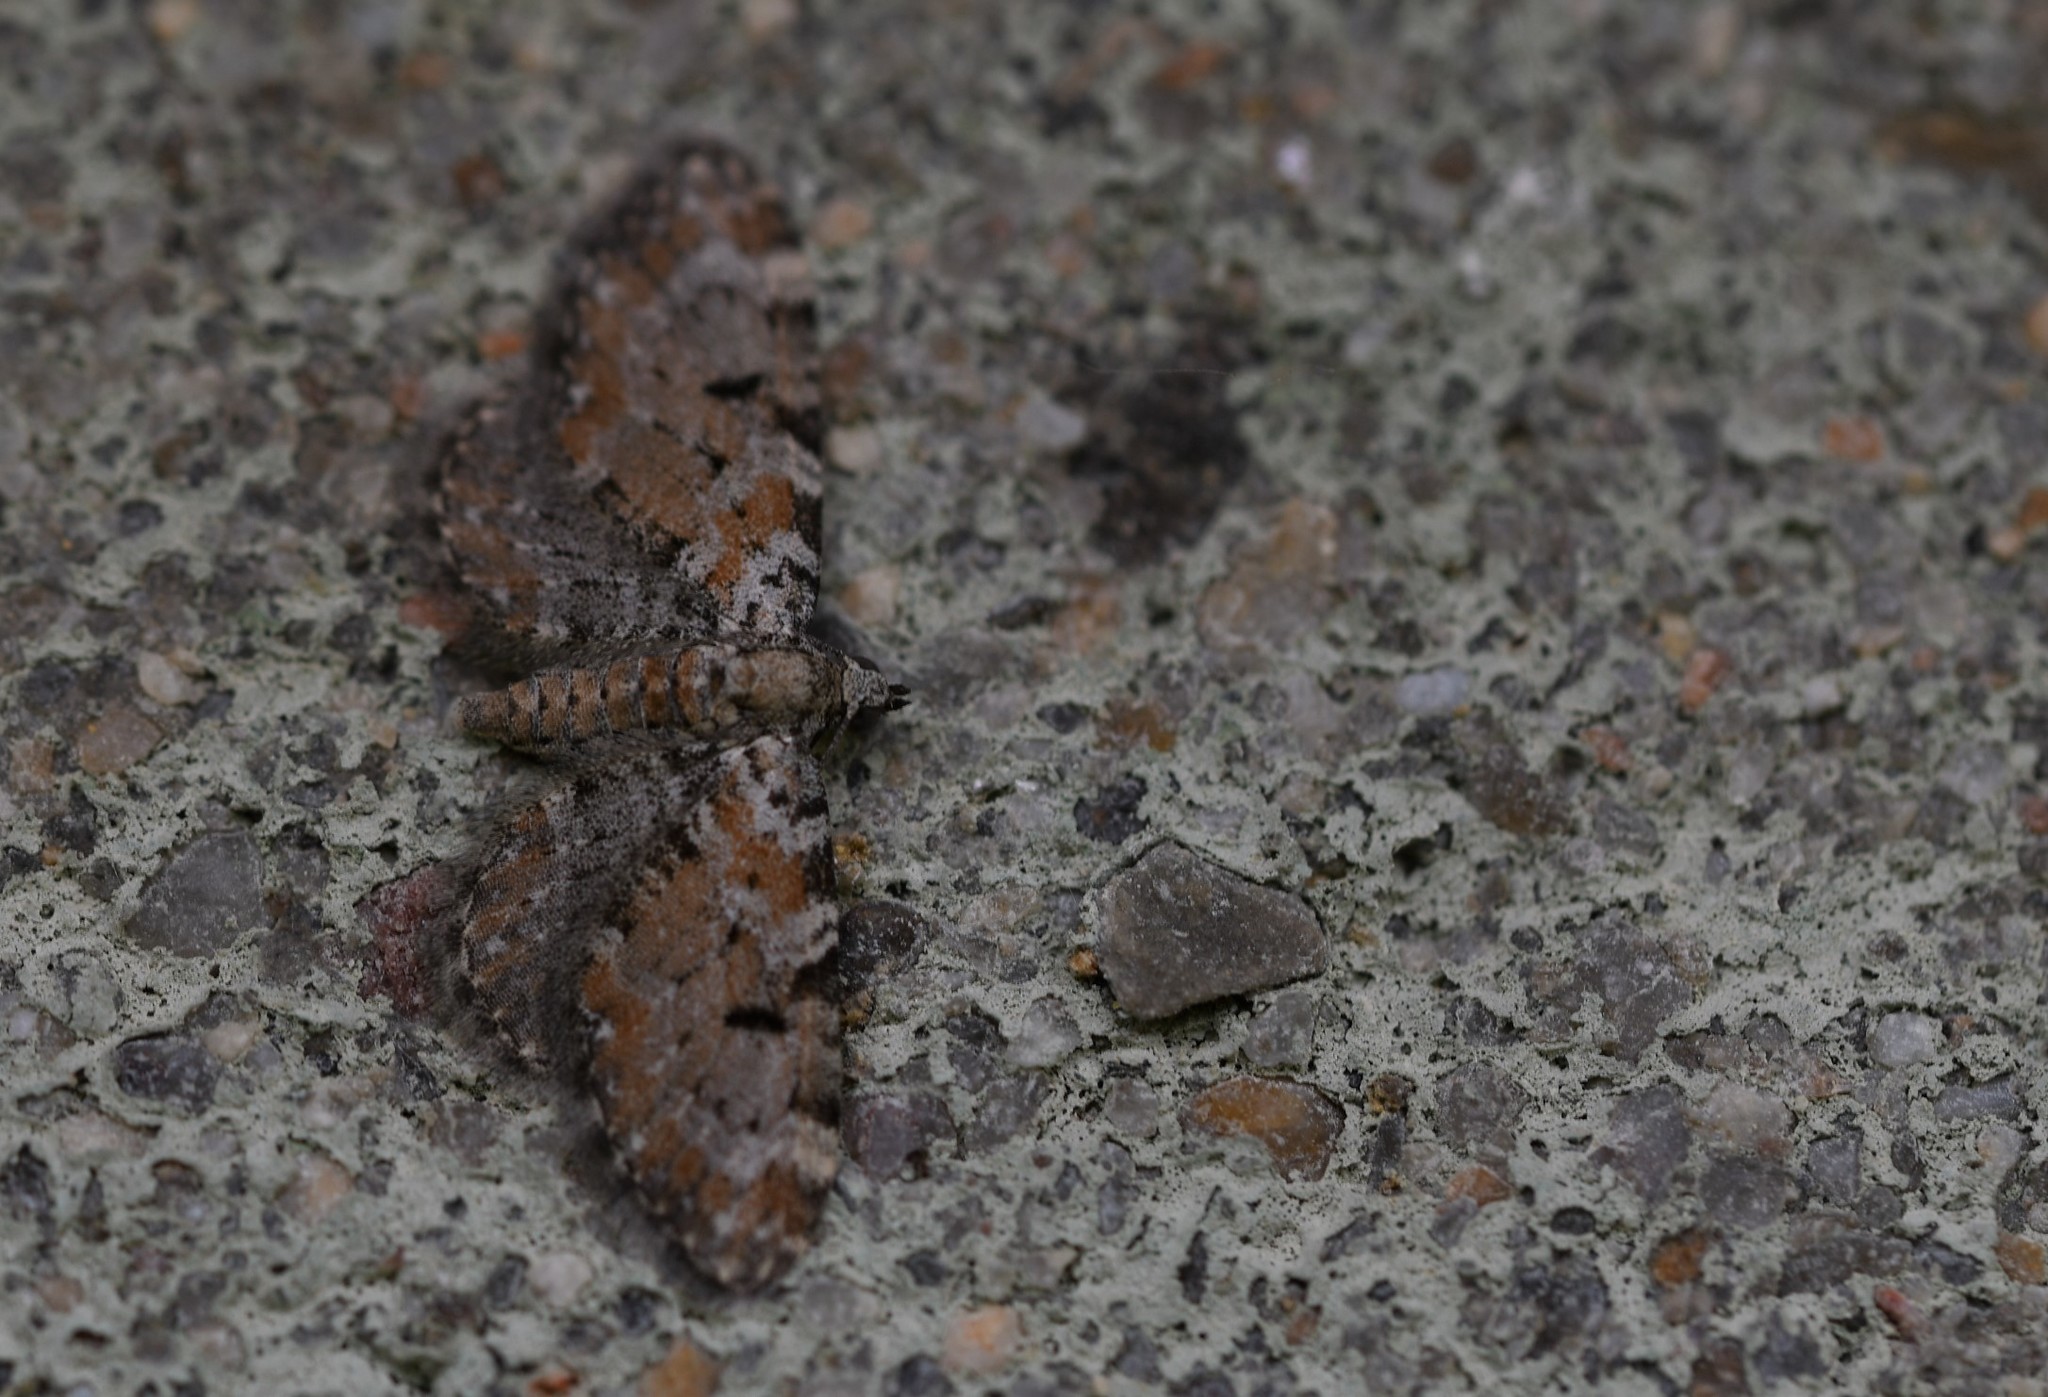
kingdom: Animalia
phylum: Arthropoda
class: Insecta
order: Lepidoptera
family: Geometridae
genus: Eupithecia
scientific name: Eupithecia pantellata
